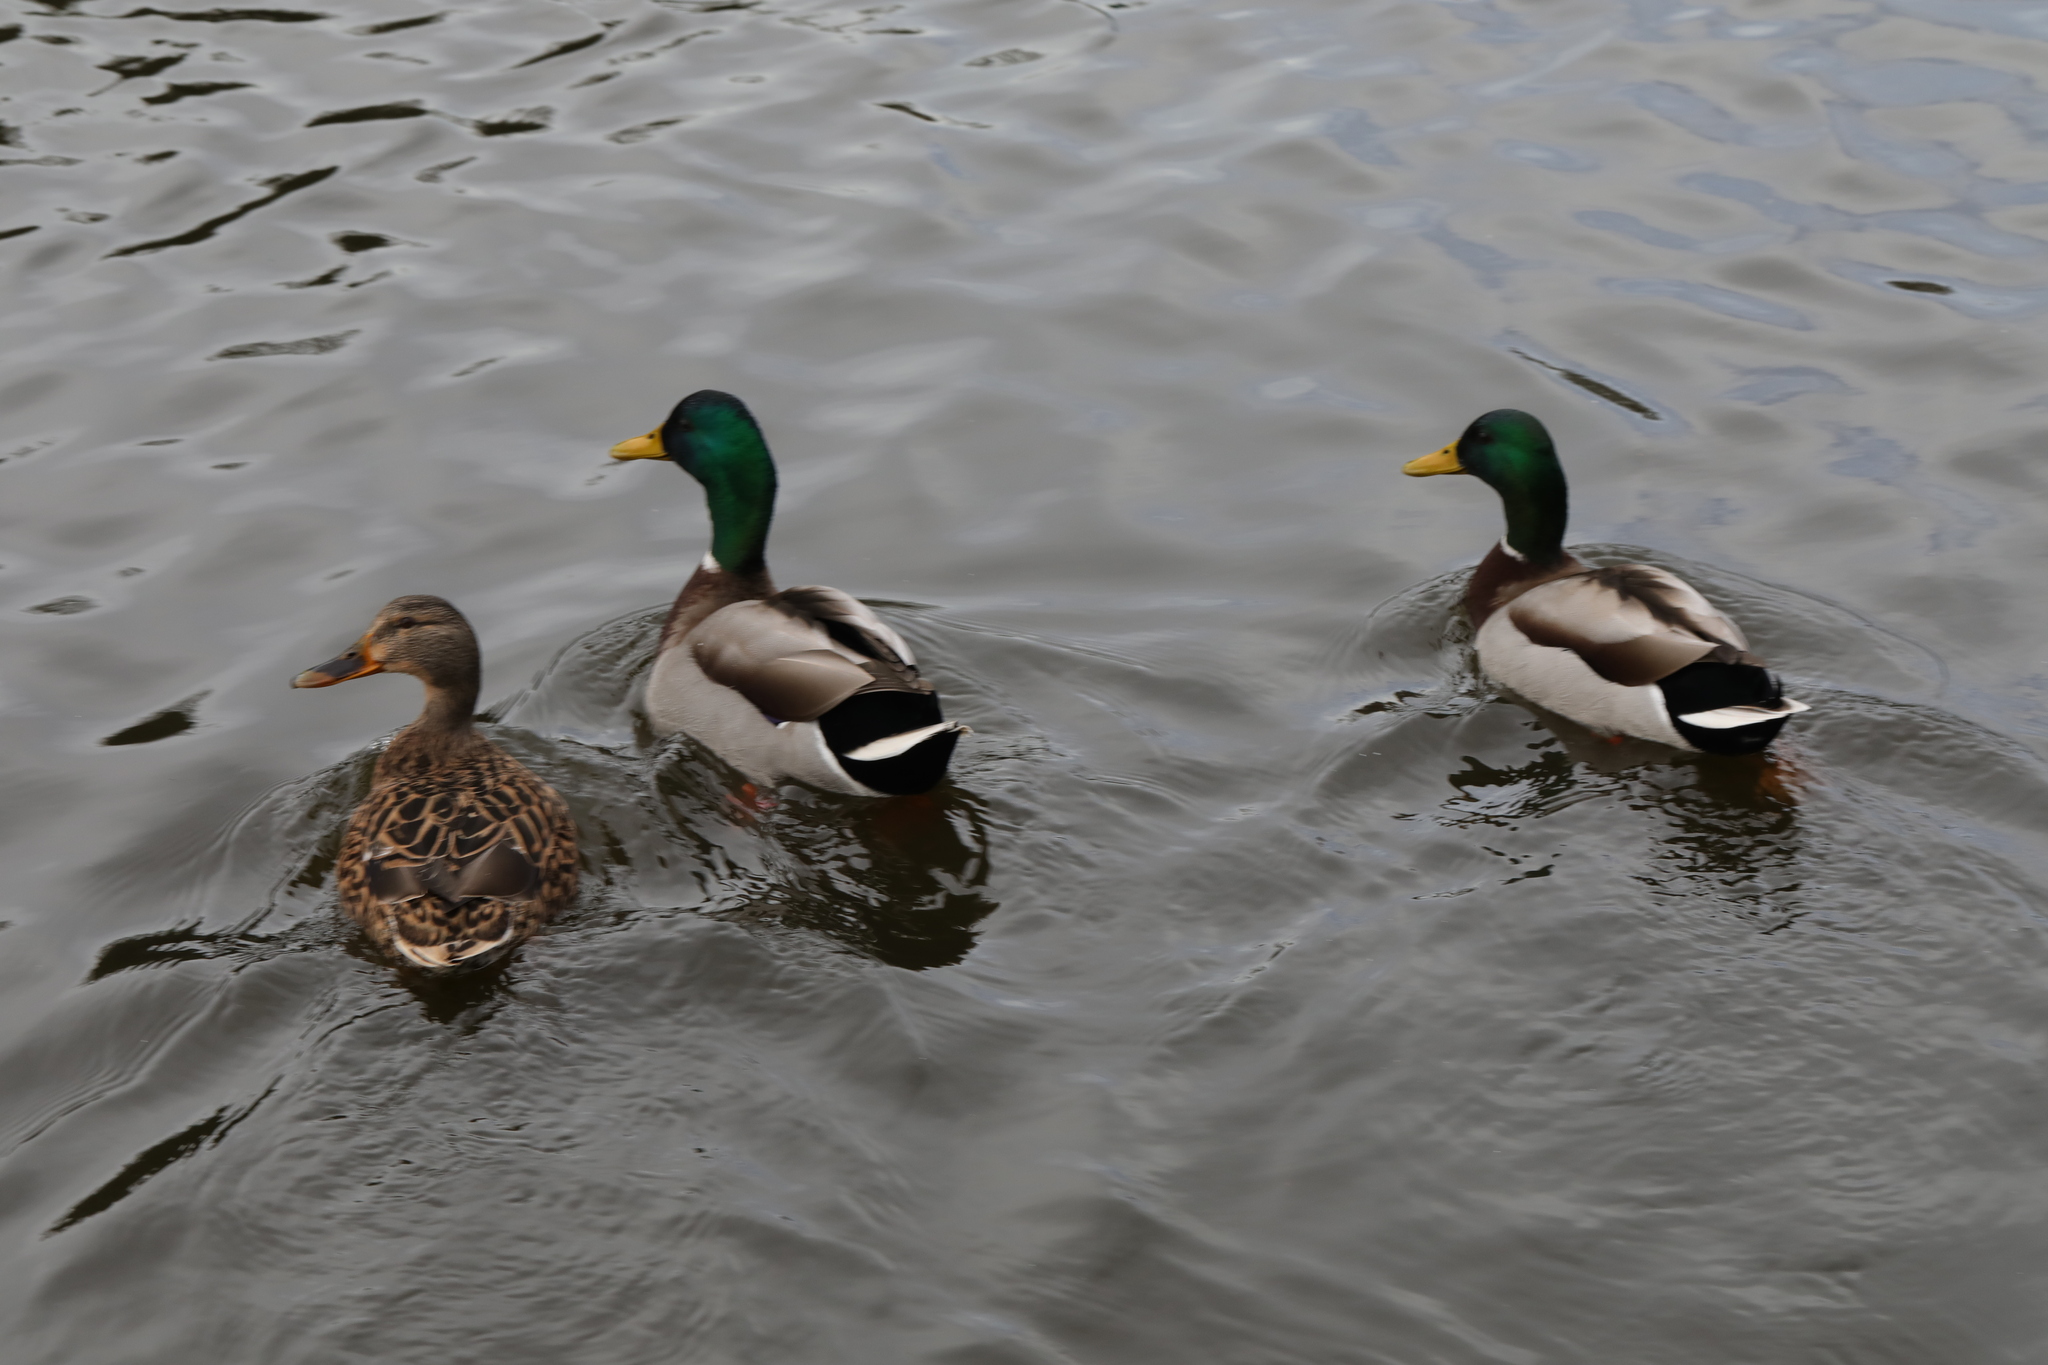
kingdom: Animalia
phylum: Chordata
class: Aves
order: Anseriformes
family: Anatidae
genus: Anas
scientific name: Anas platyrhynchos
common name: Mallard
